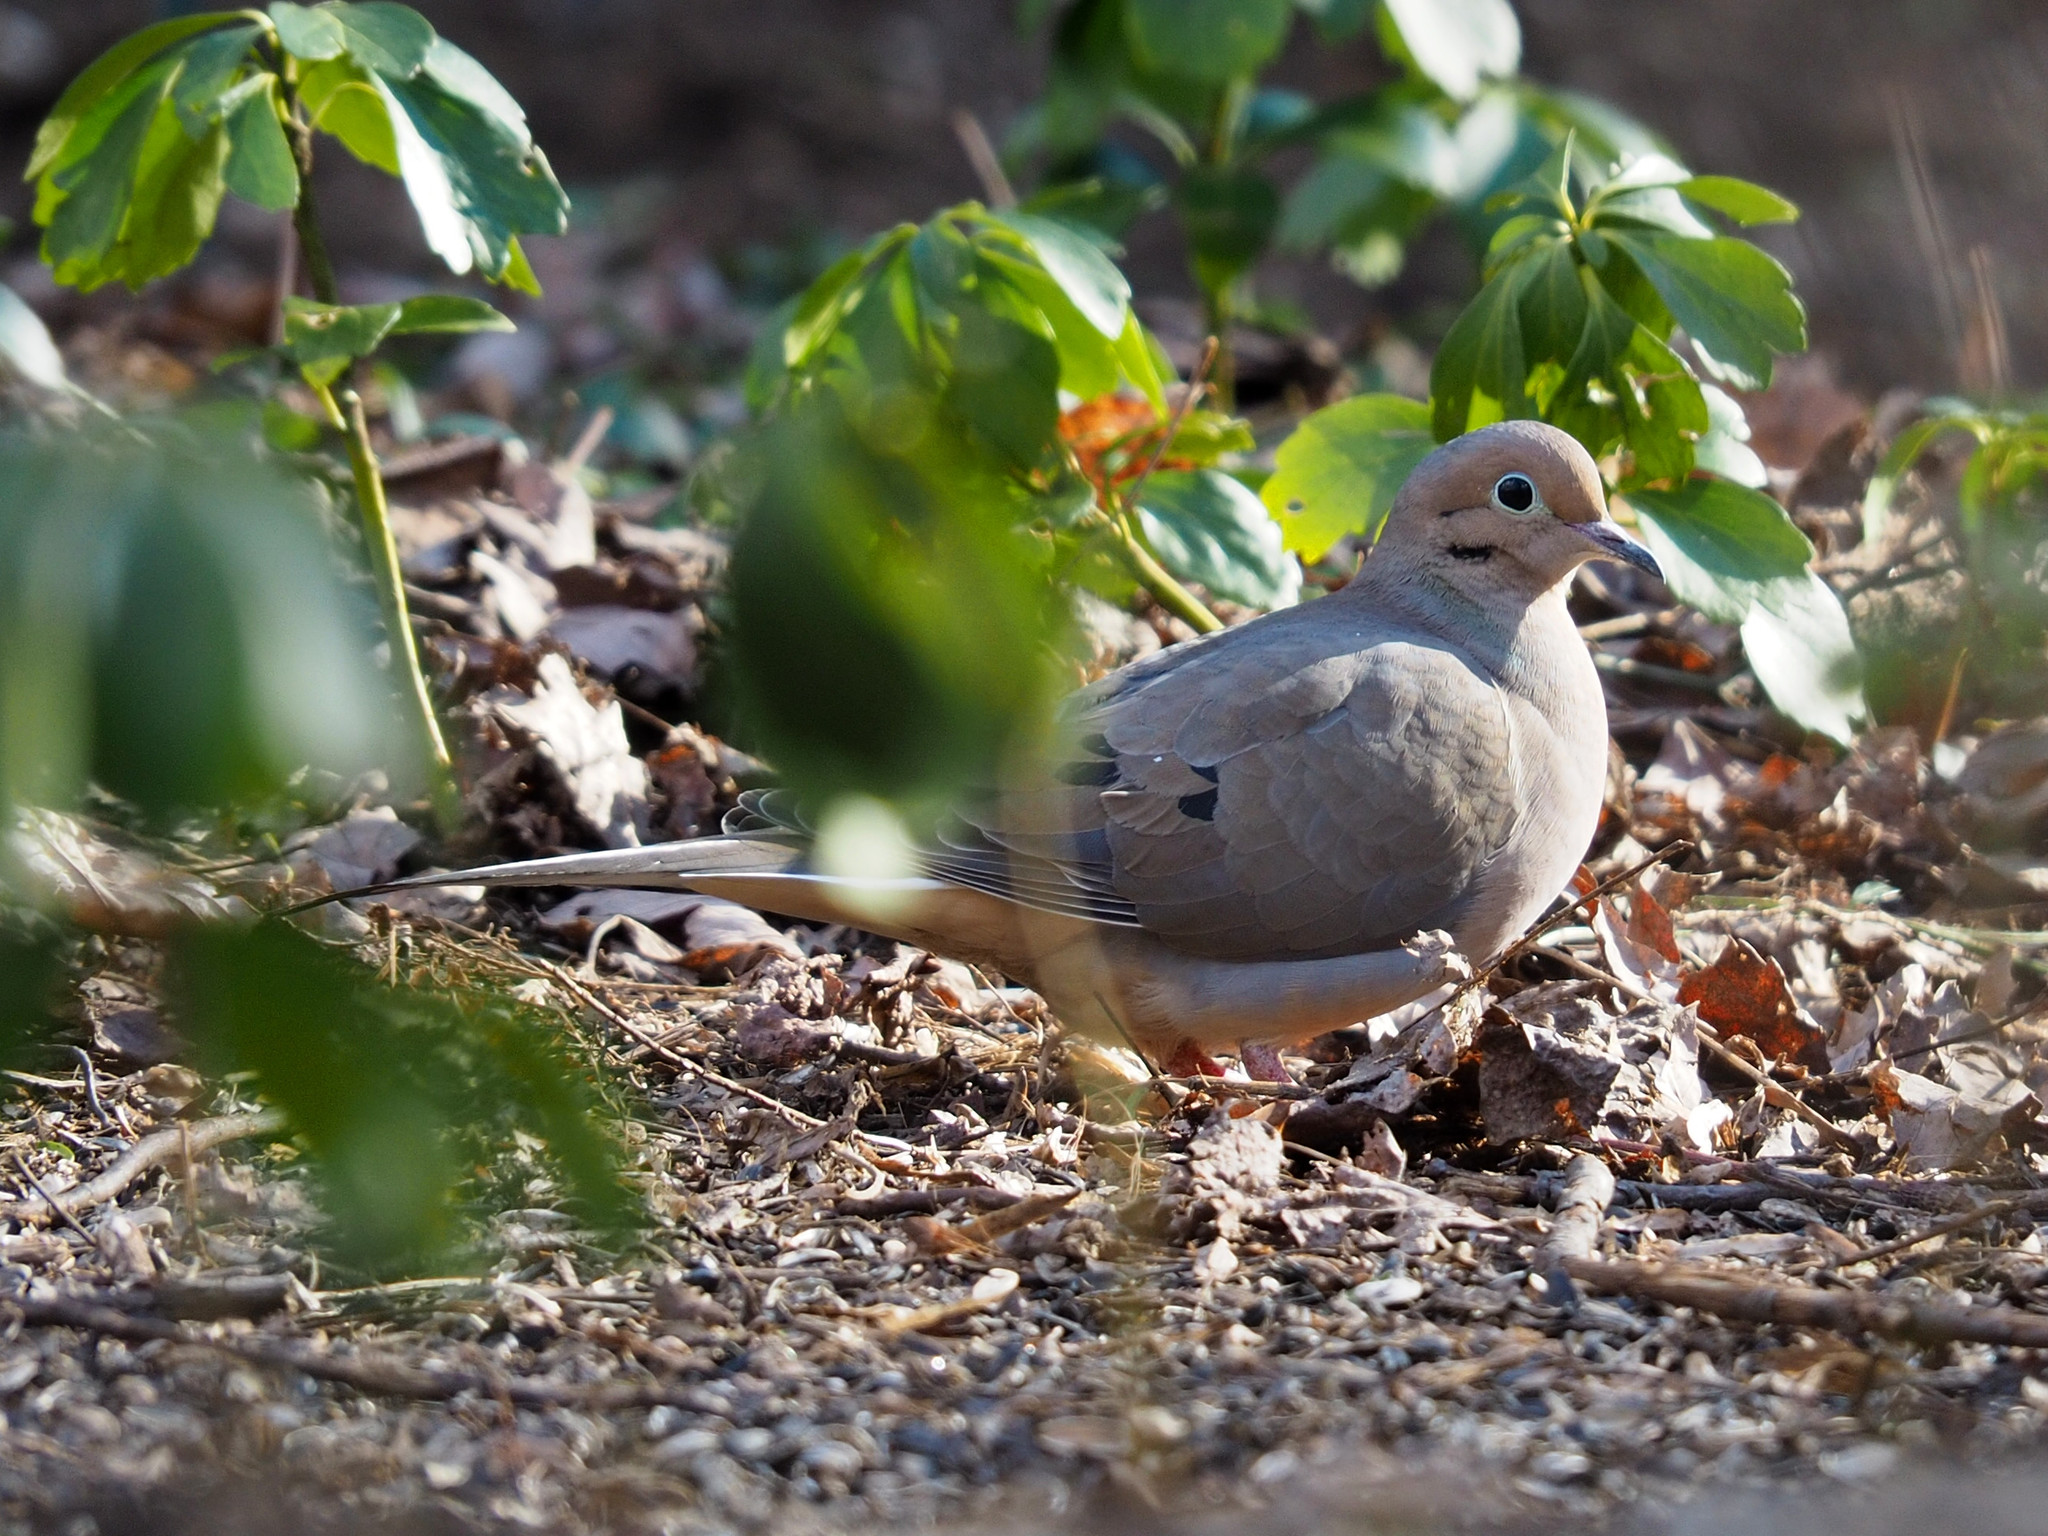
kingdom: Animalia
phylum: Chordata
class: Aves
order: Columbiformes
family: Columbidae
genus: Zenaida
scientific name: Zenaida macroura
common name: Mourning dove
